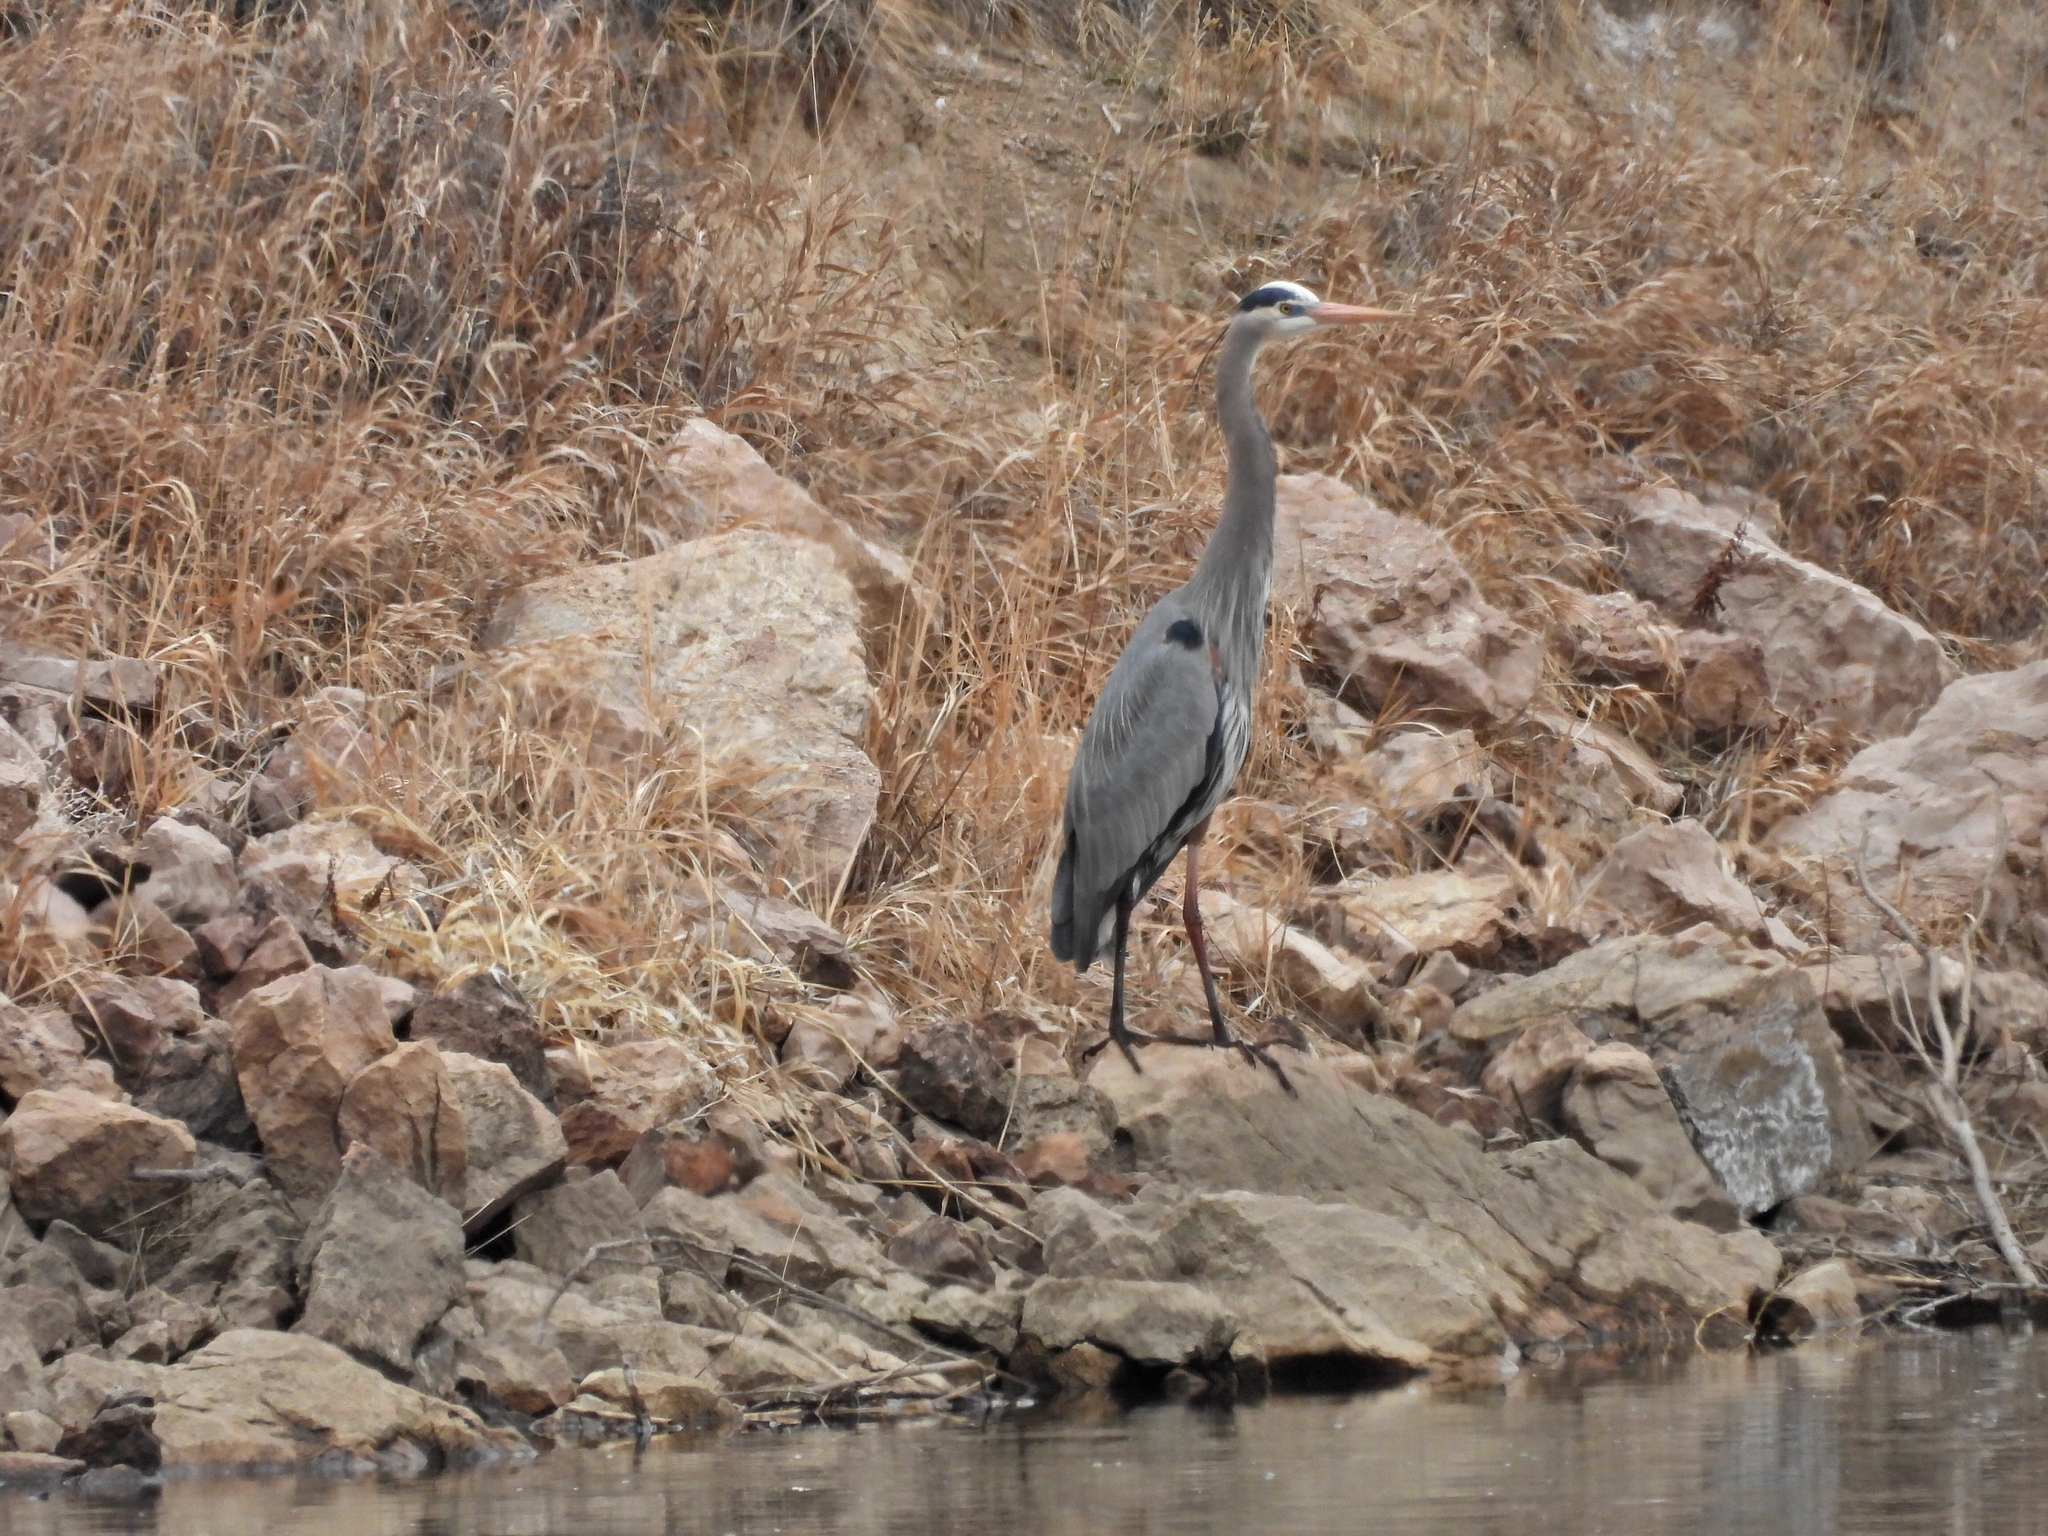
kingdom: Animalia
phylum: Chordata
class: Aves
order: Pelecaniformes
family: Ardeidae
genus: Ardea
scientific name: Ardea herodias
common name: Great blue heron
